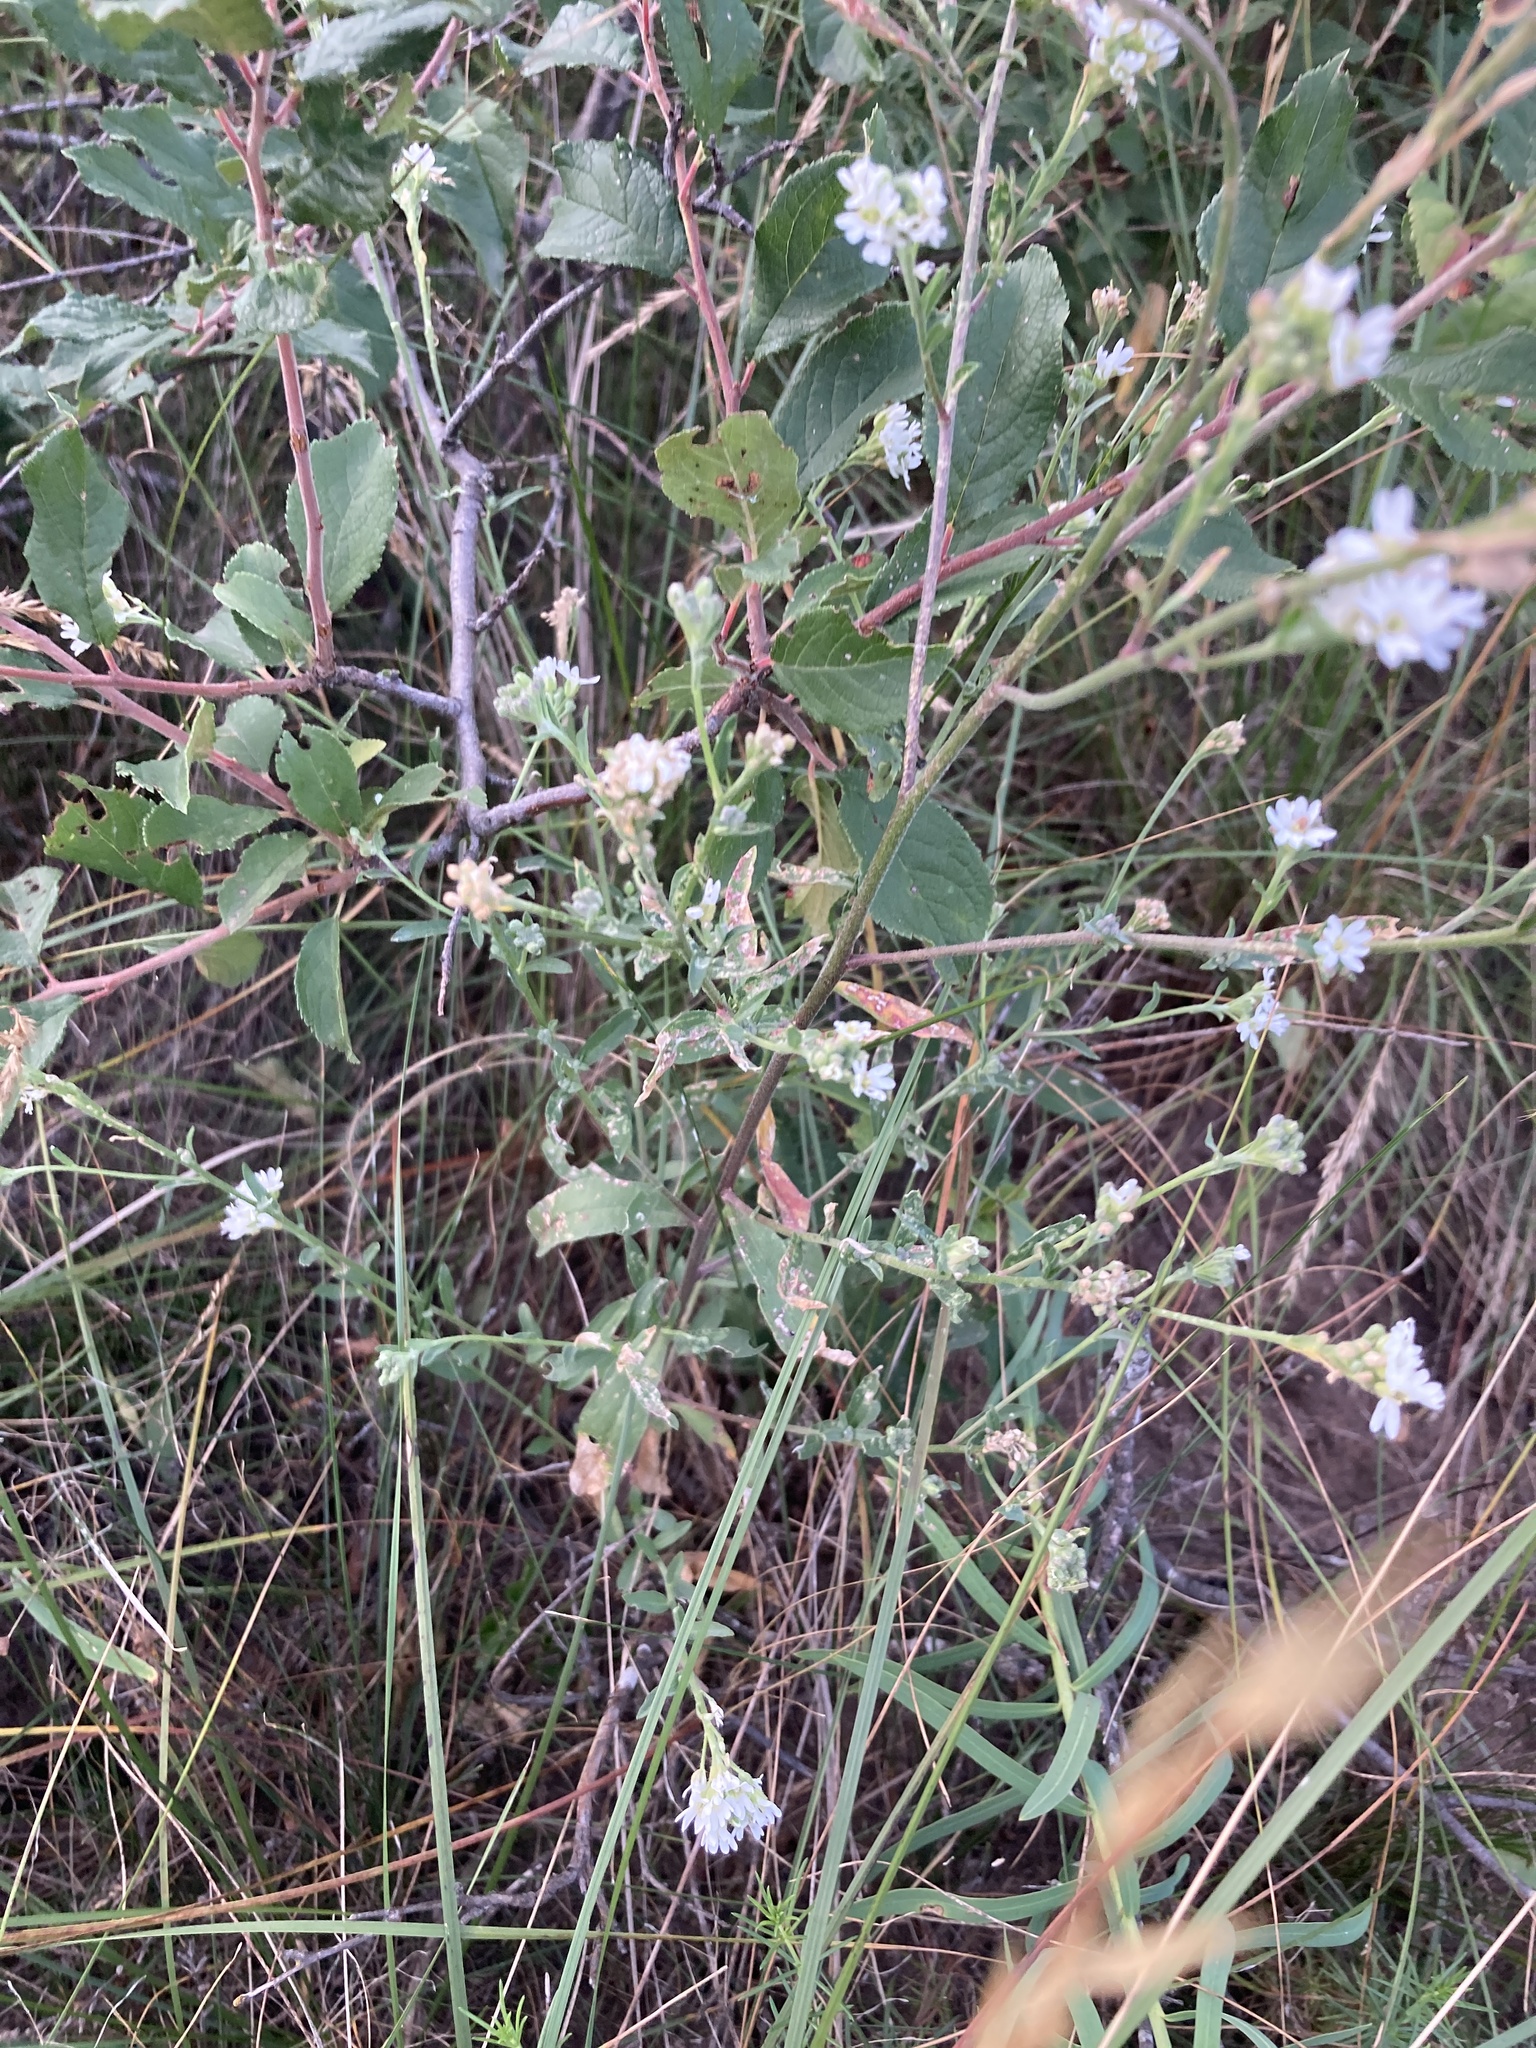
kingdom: Plantae
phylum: Tracheophyta
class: Magnoliopsida
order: Brassicales
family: Brassicaceae
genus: Berteroa
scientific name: Berteroa incana
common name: Hoary alison
